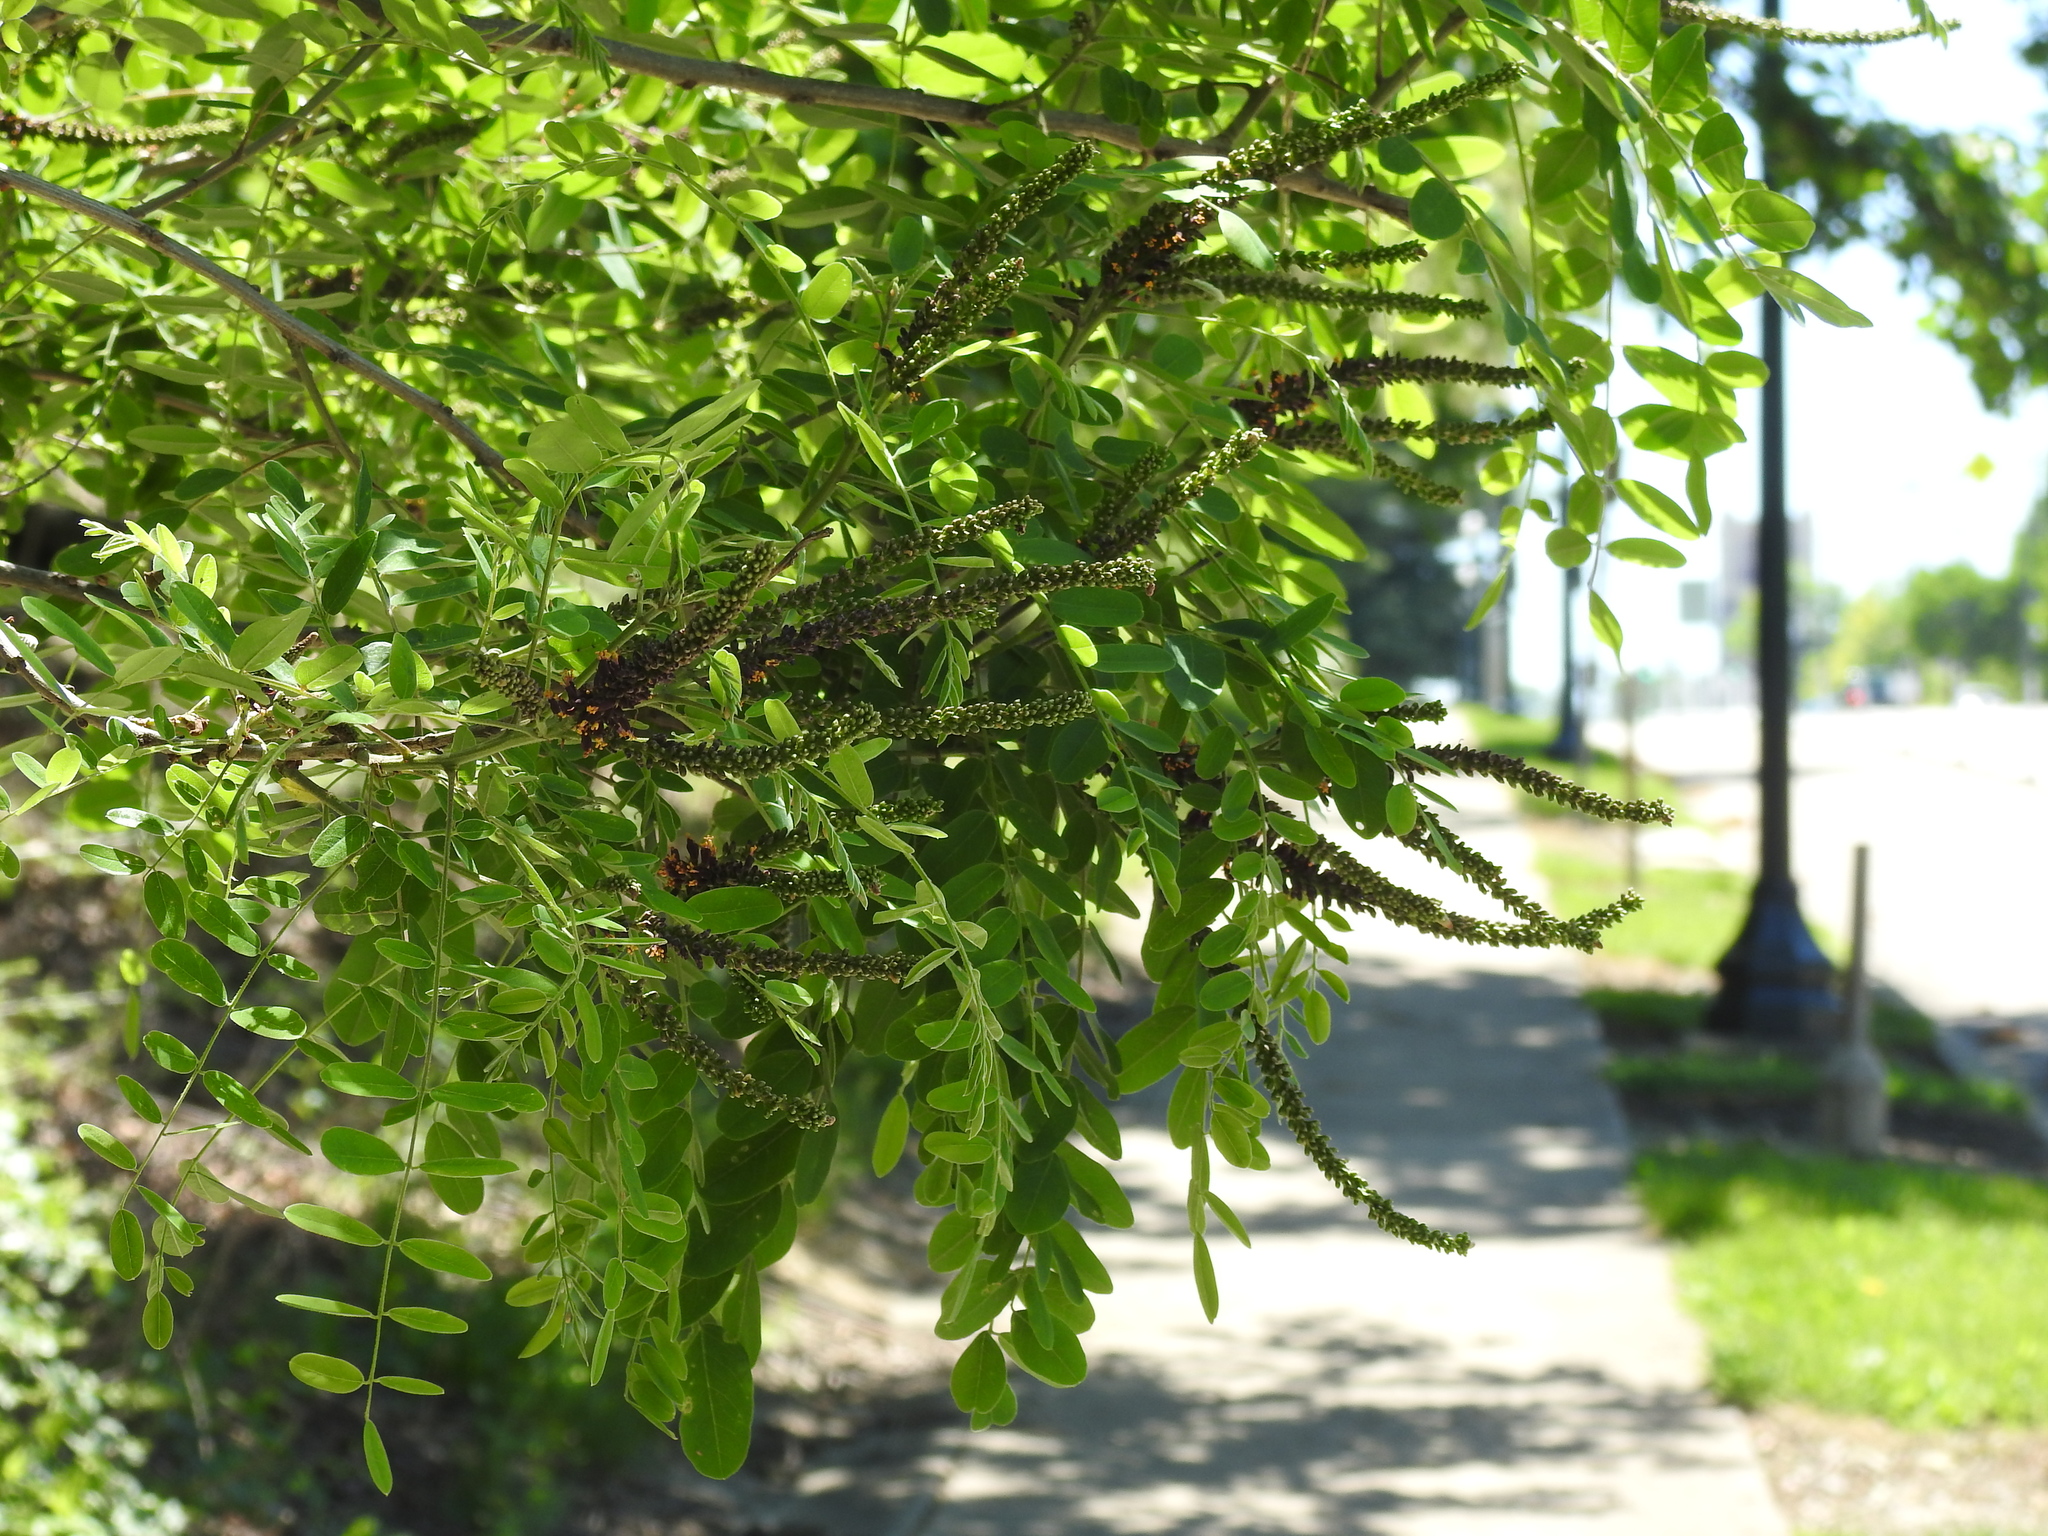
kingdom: Plantae
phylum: Tracheophyta
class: Magnoliopsida
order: Fabales
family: Fabaceae
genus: Amorpha
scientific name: Amorpha fruticosa
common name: False indigo
